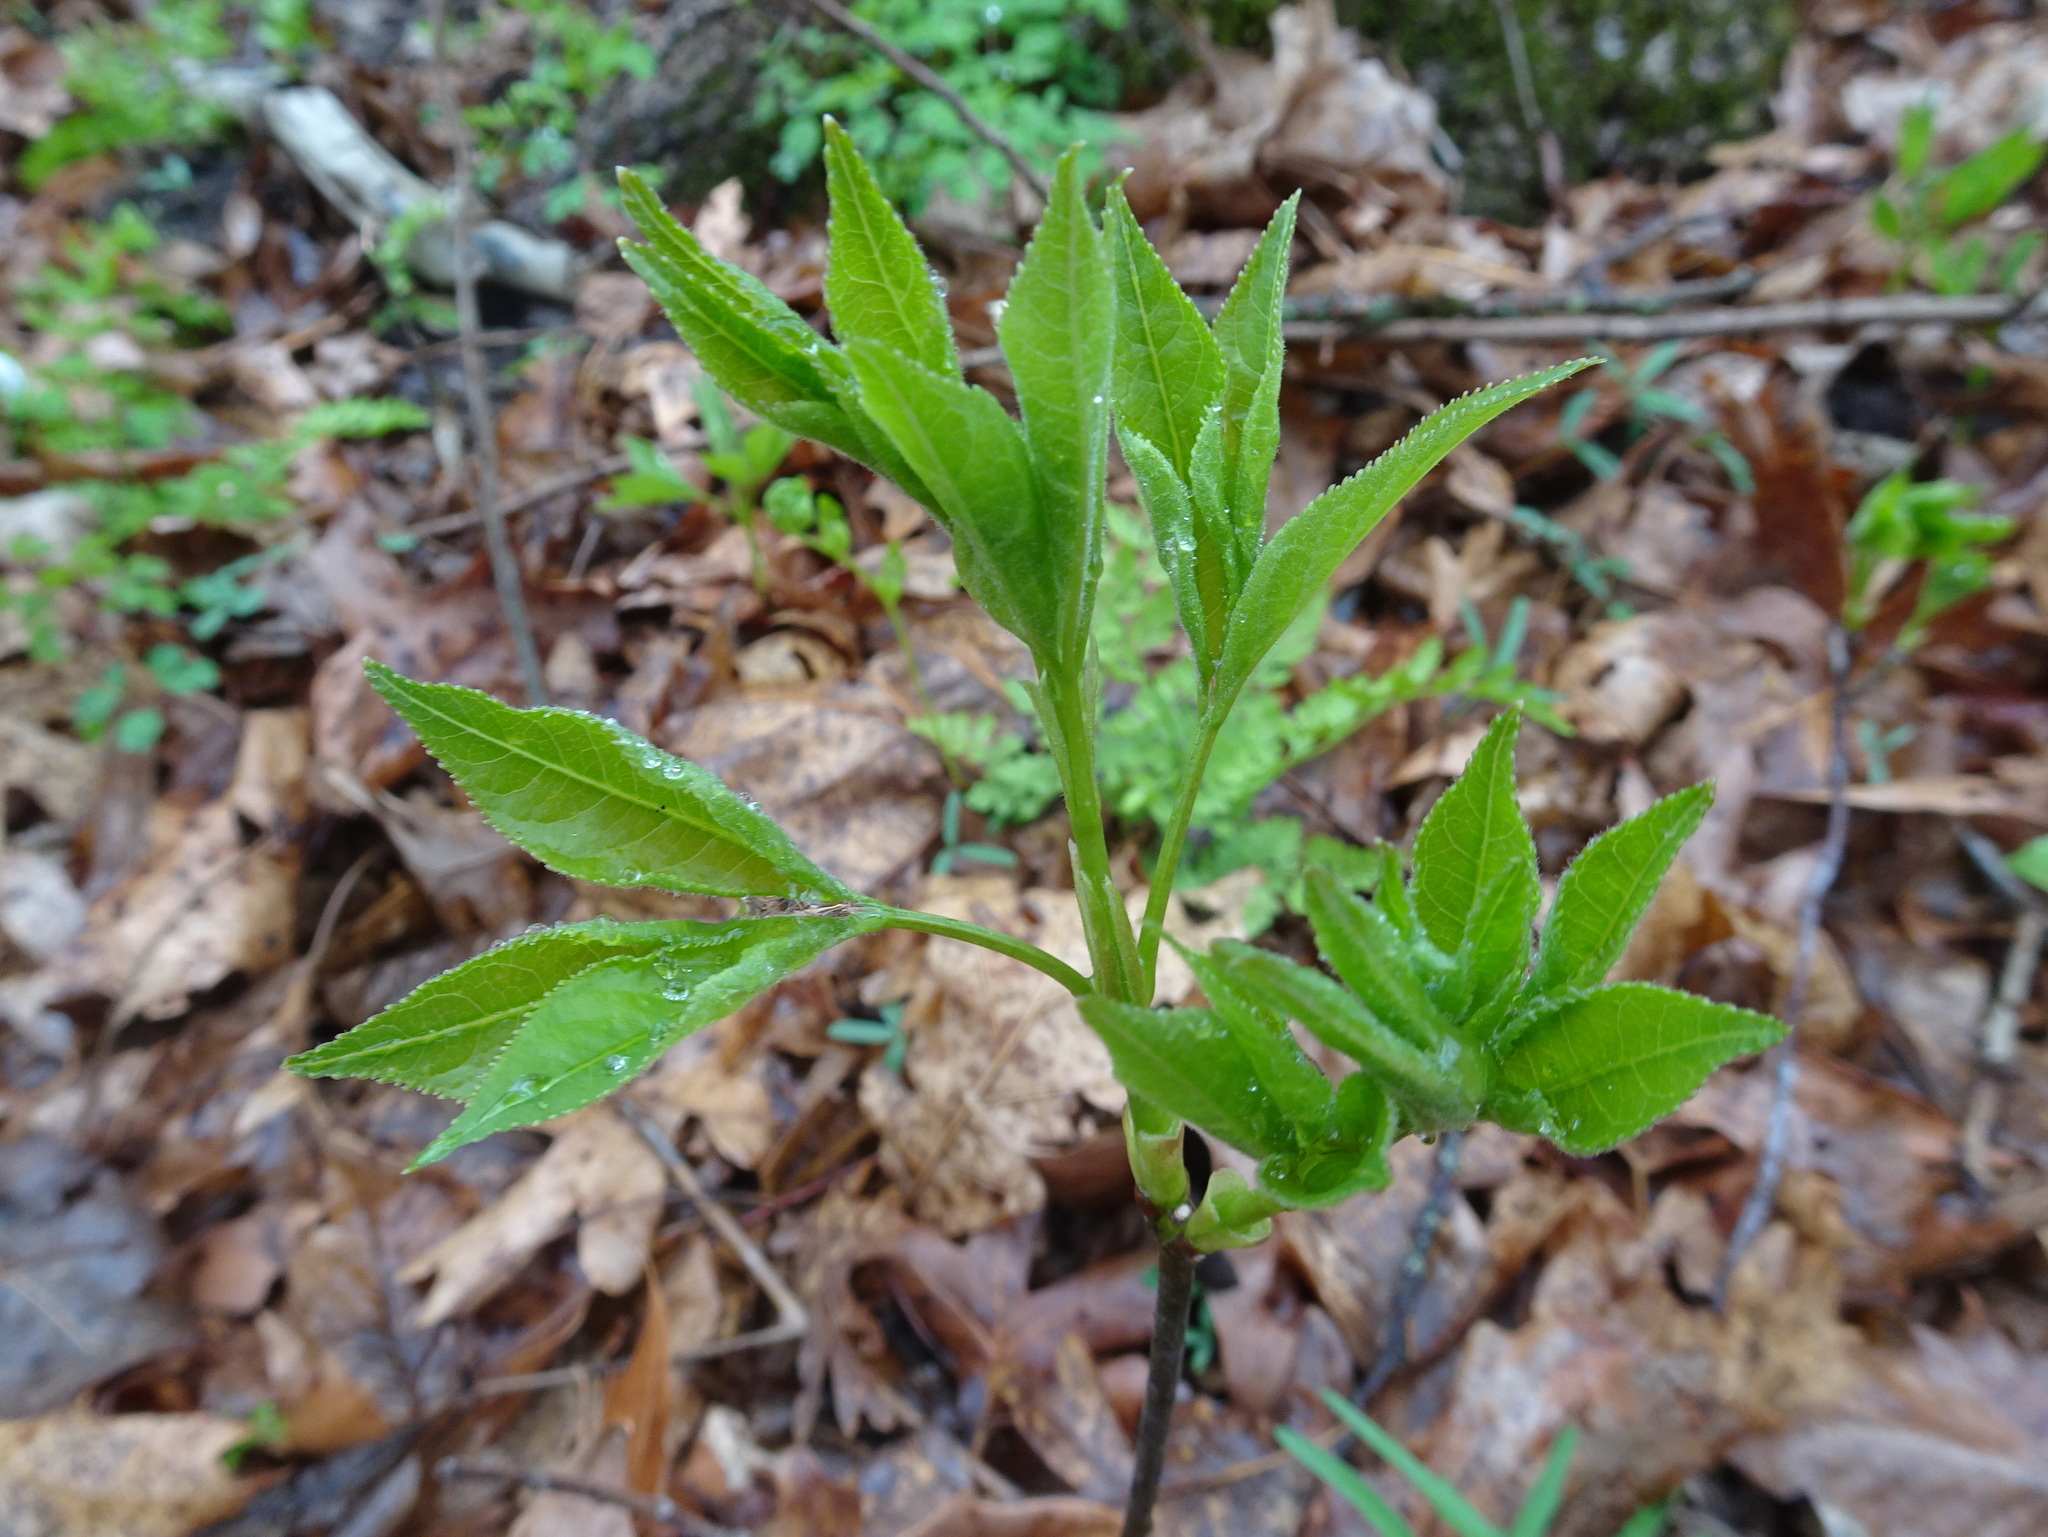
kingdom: Plantae
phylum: Tracheophyta
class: Magnoliopsida
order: Crossosomatales
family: Staphyleaceae
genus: Staphylea
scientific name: Staphylea trifolia
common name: American bladdernut
